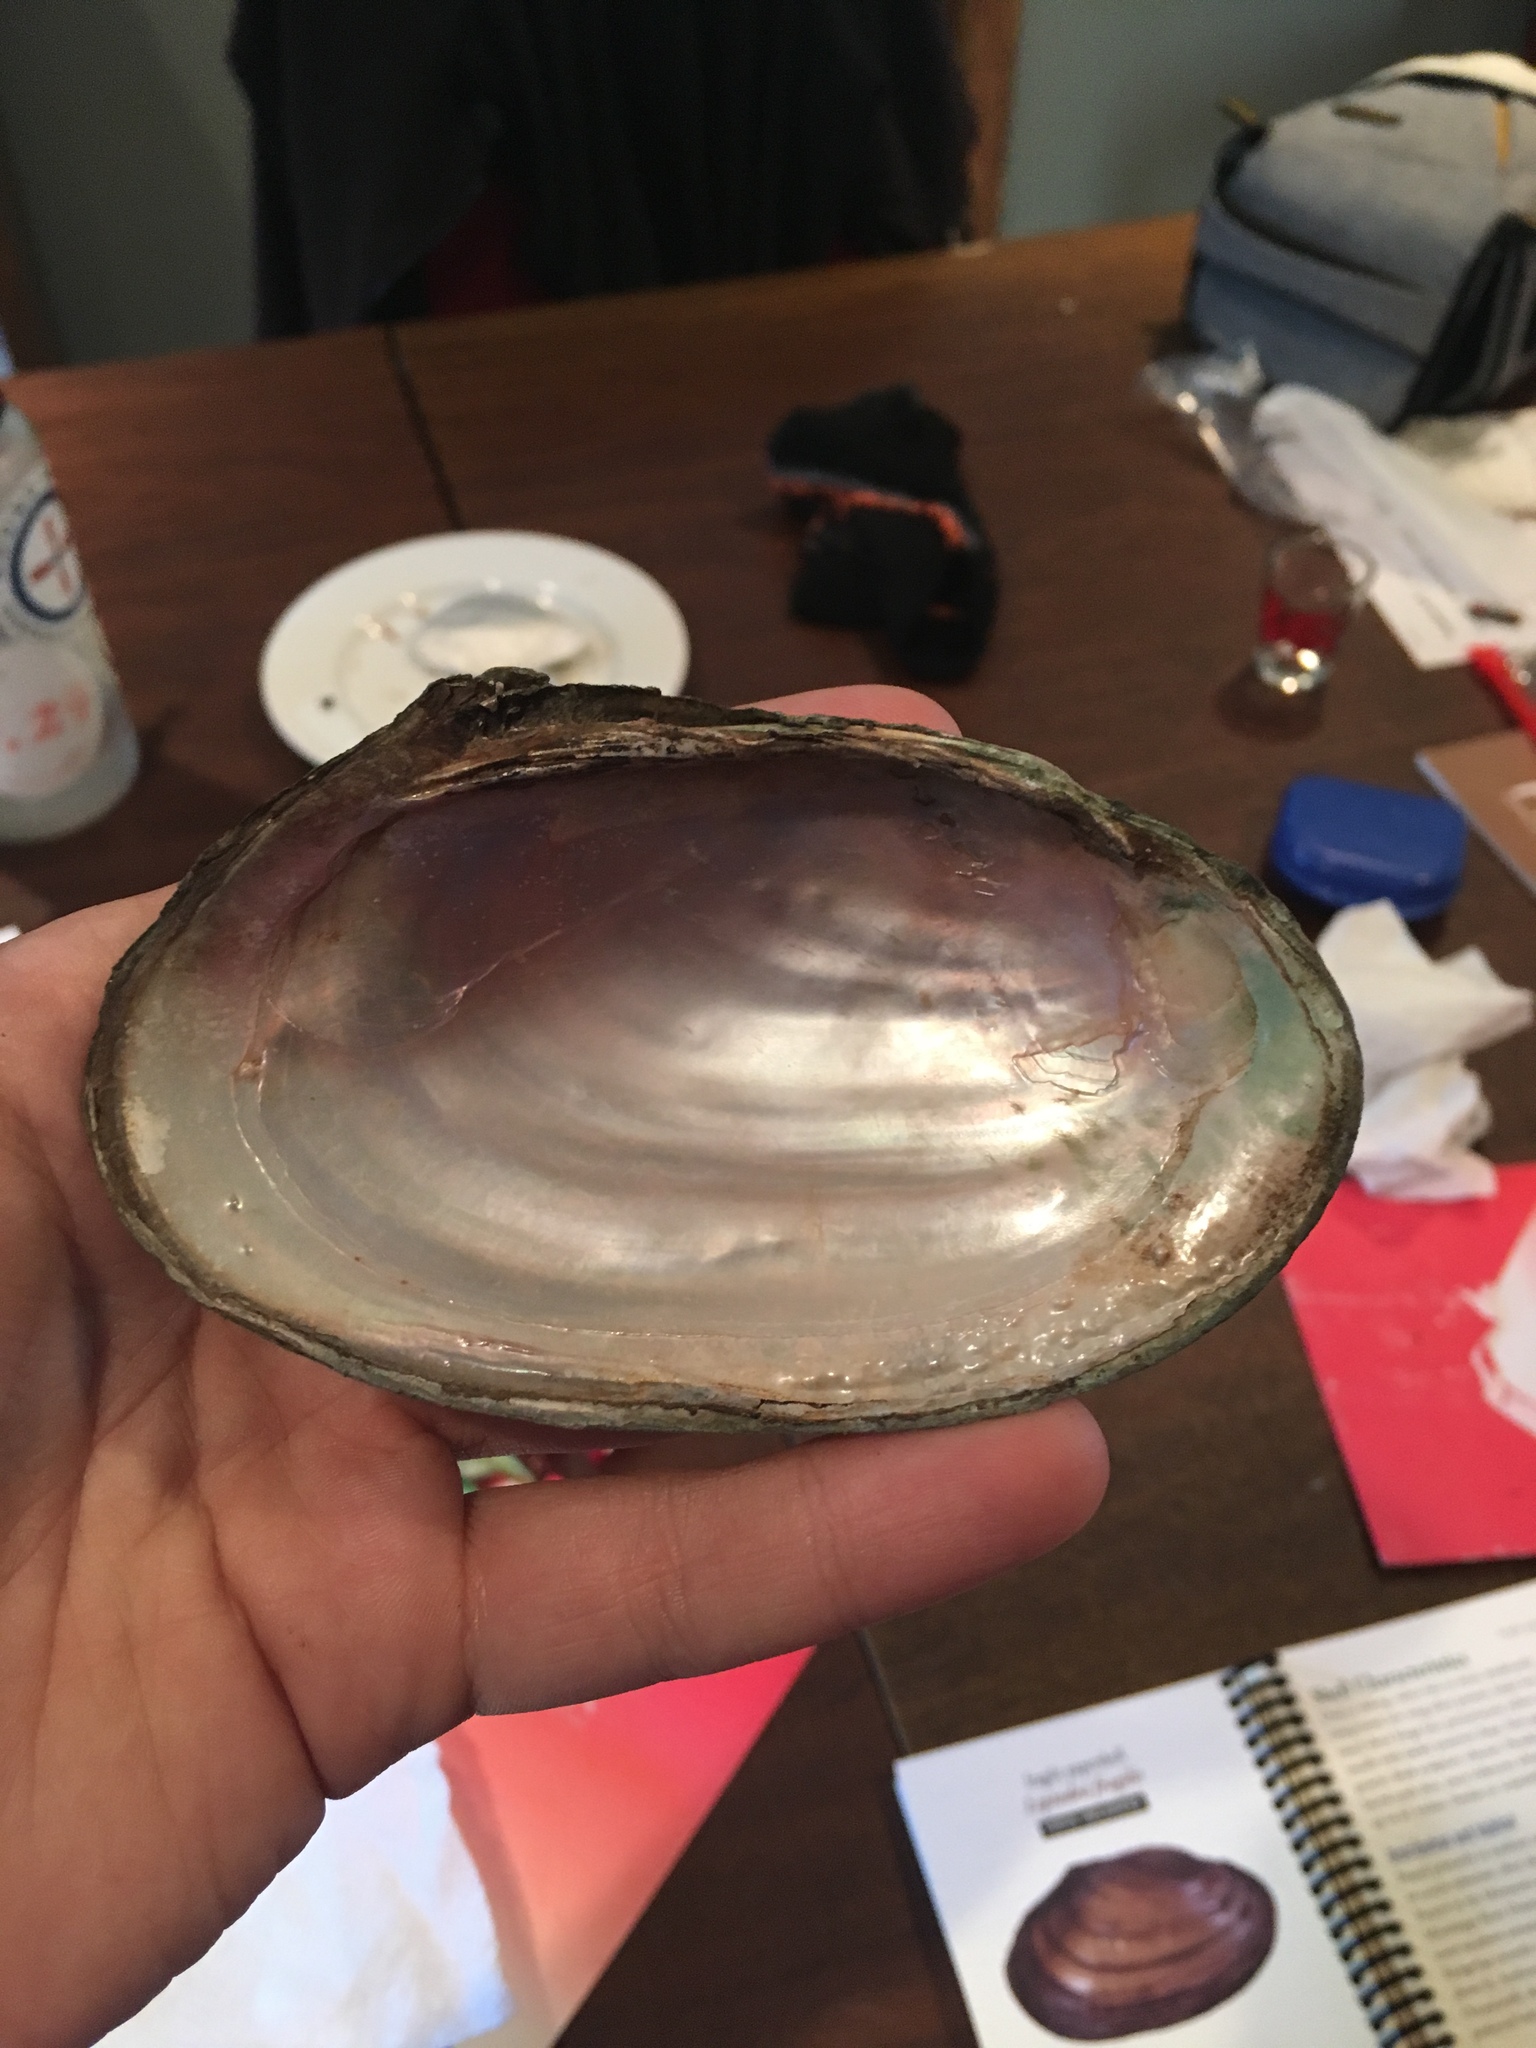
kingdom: Animalia
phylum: Mollusca
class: Bivalvia
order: Unionida
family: Unionidae
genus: Potamilus
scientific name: Potamilus fragilis
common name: Fragile papershell
